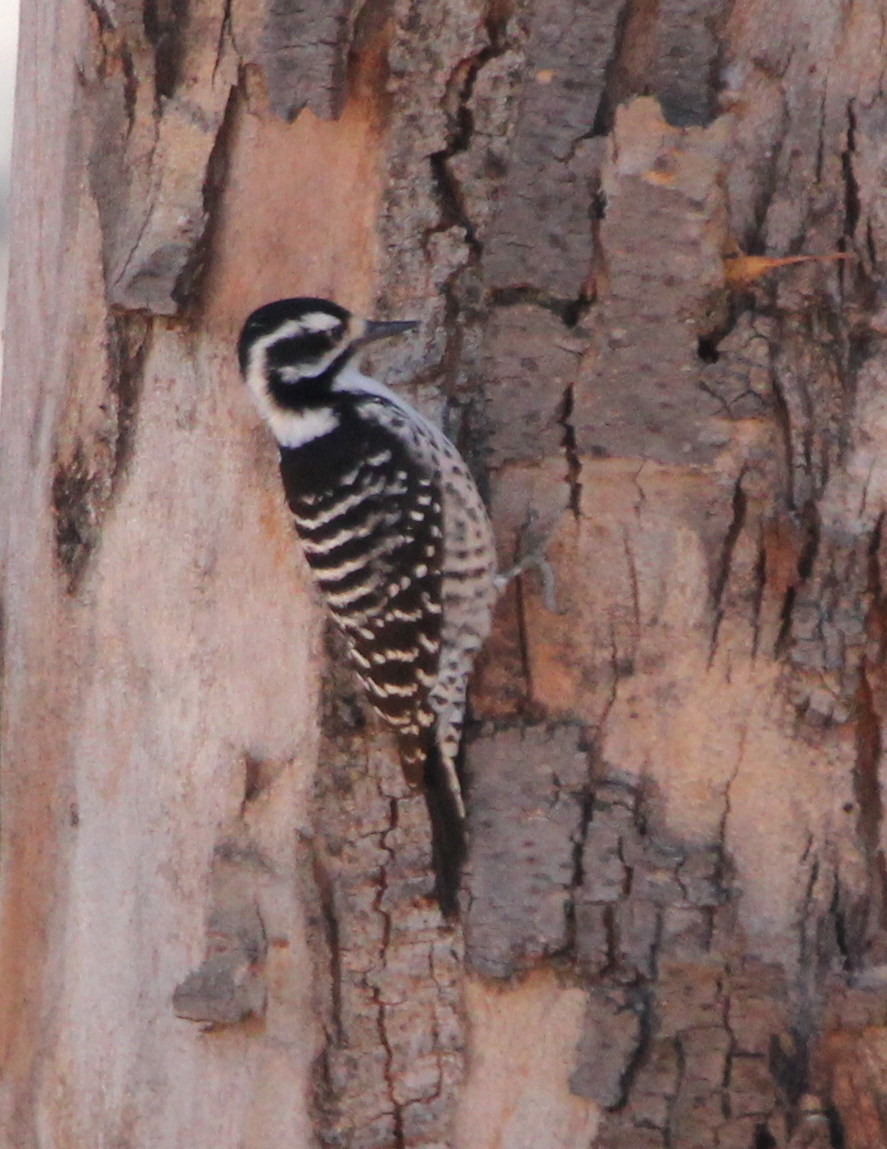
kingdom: Animalia
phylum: Chordata
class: Aves
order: Piciformes
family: Picidae
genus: Dryobates
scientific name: Dryobates nuttallii
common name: Nuttall's woodpecker
